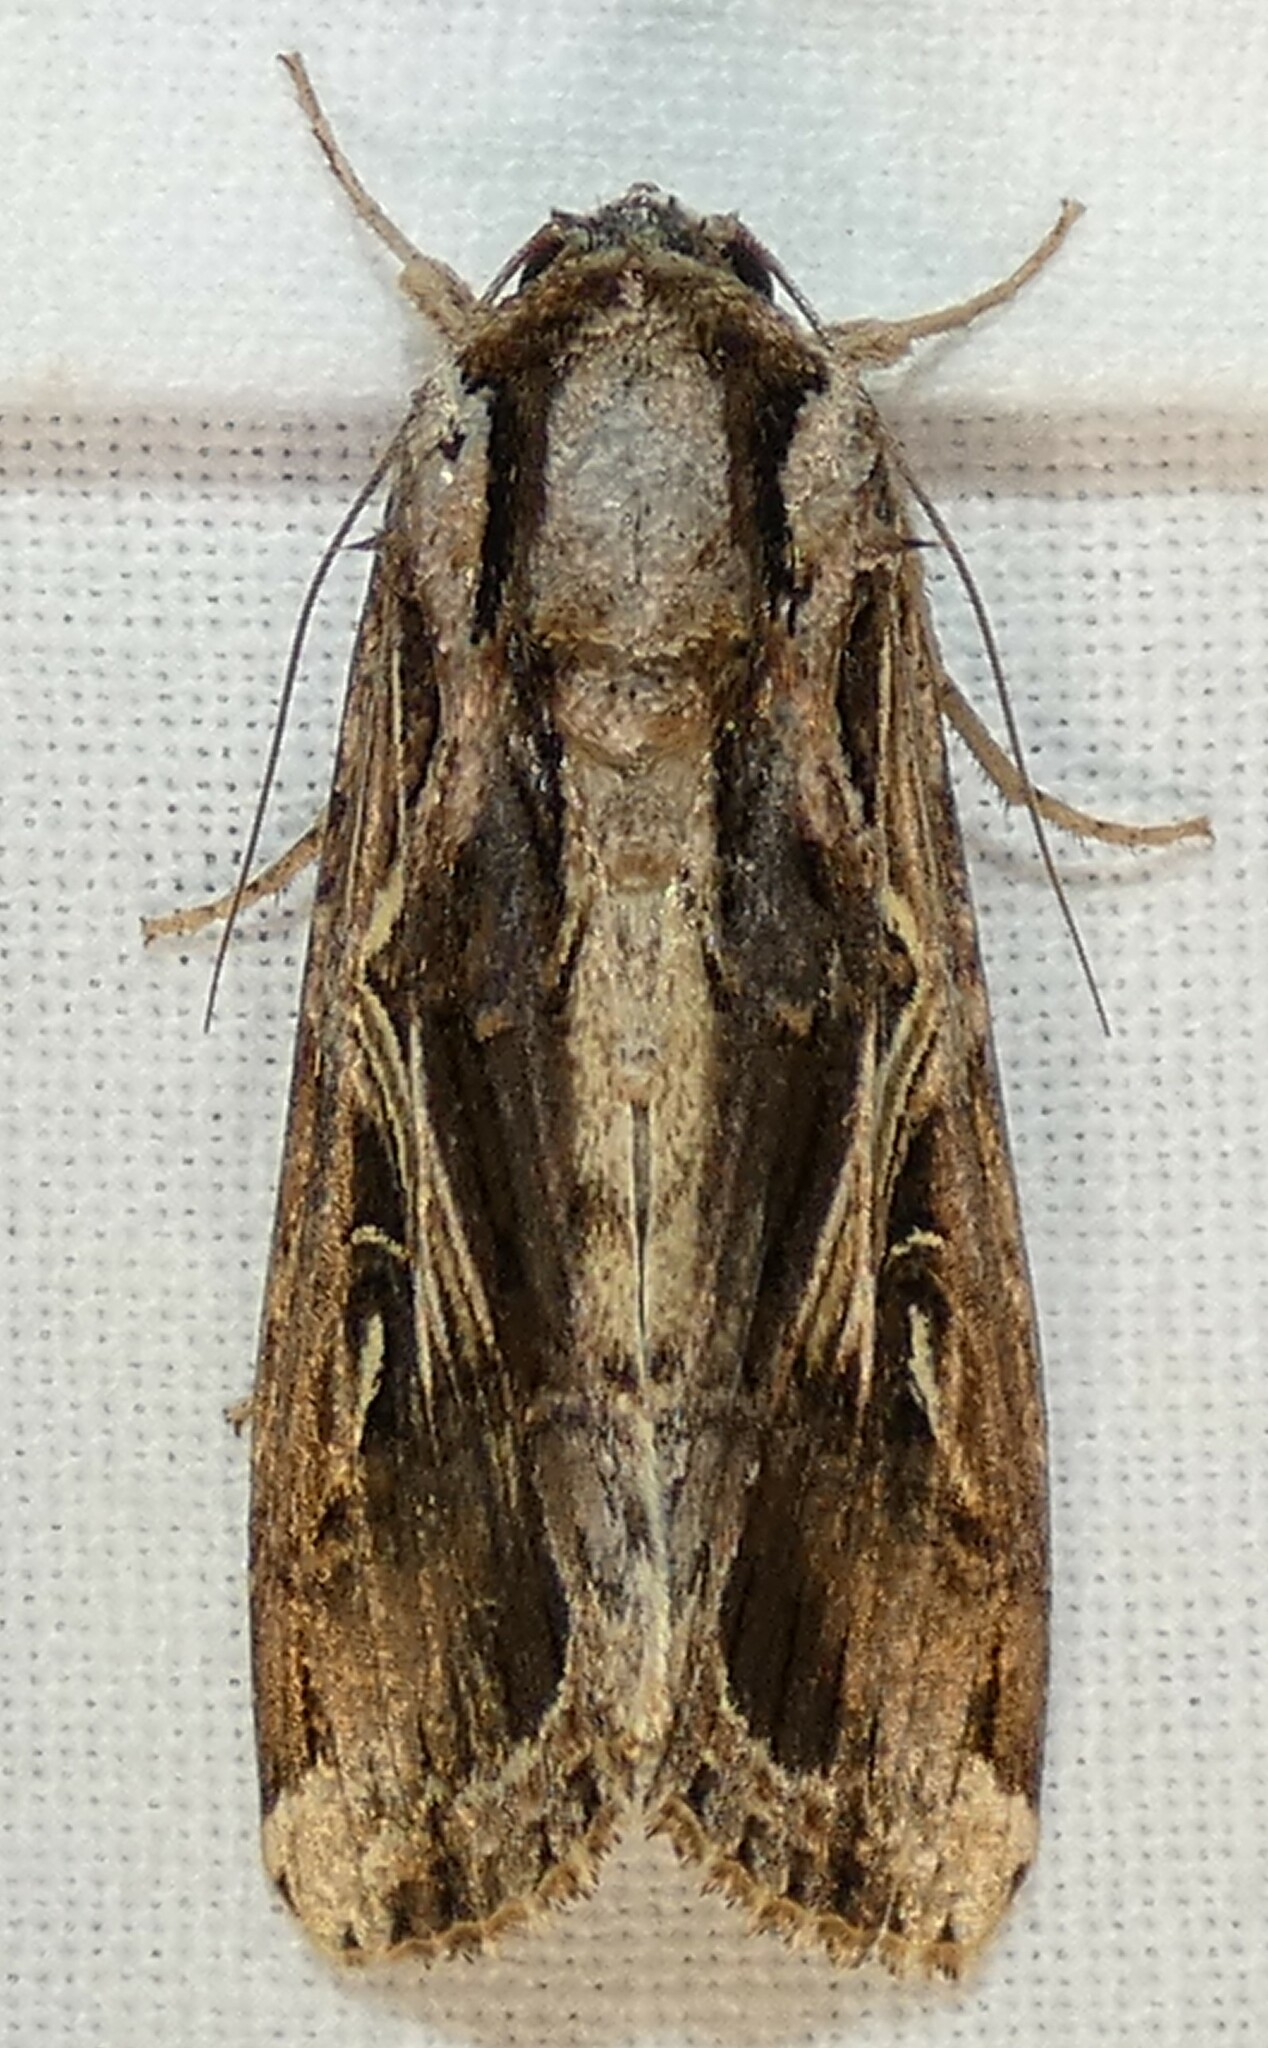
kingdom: Animalia
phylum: Arthropoda
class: Insecta
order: Lepidoptera
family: Noctuidae
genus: Spodoptera
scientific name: Spodoptera dolichos
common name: Sweetpotato armyworm
